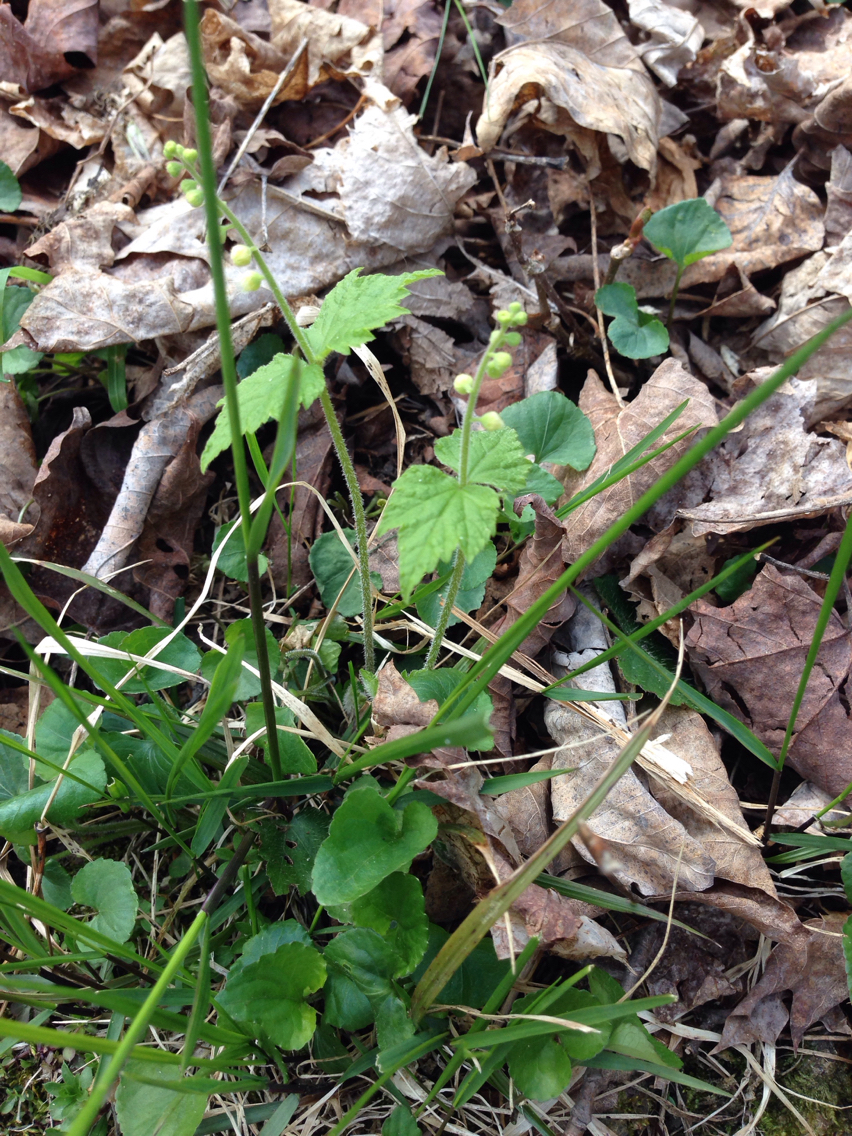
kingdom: Plantae
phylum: Tracheophyta
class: Magnoliopsida
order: Saxifragales
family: Saxifragaceae
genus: Mitella
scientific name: Mitella diphylla
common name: Coolwort
